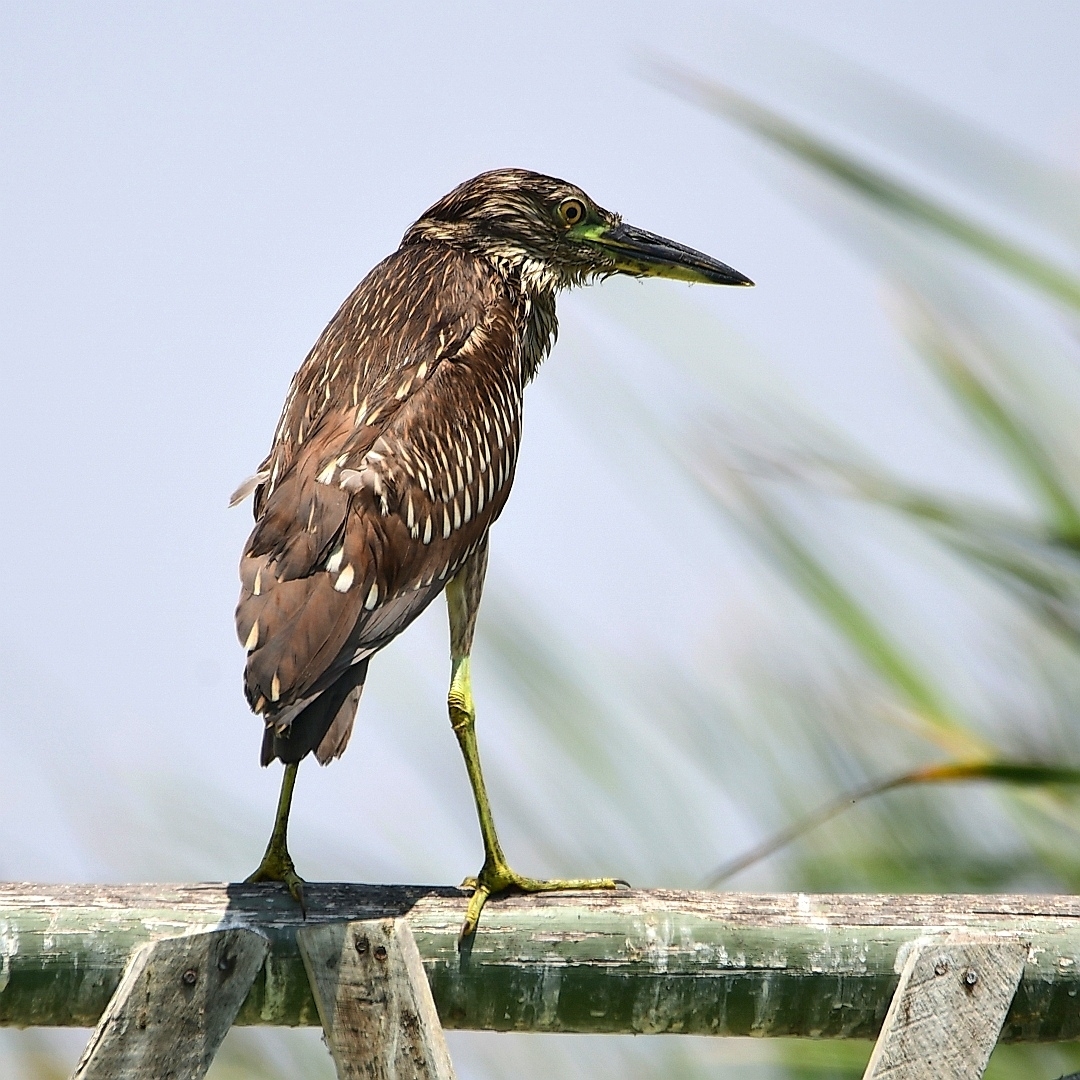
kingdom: Animalia
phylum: Chordata
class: Aves
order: Pelecaniformes
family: Ardeidae
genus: Nycticorax
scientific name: Nycticorax nycticorax
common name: Black-crowned night heron
